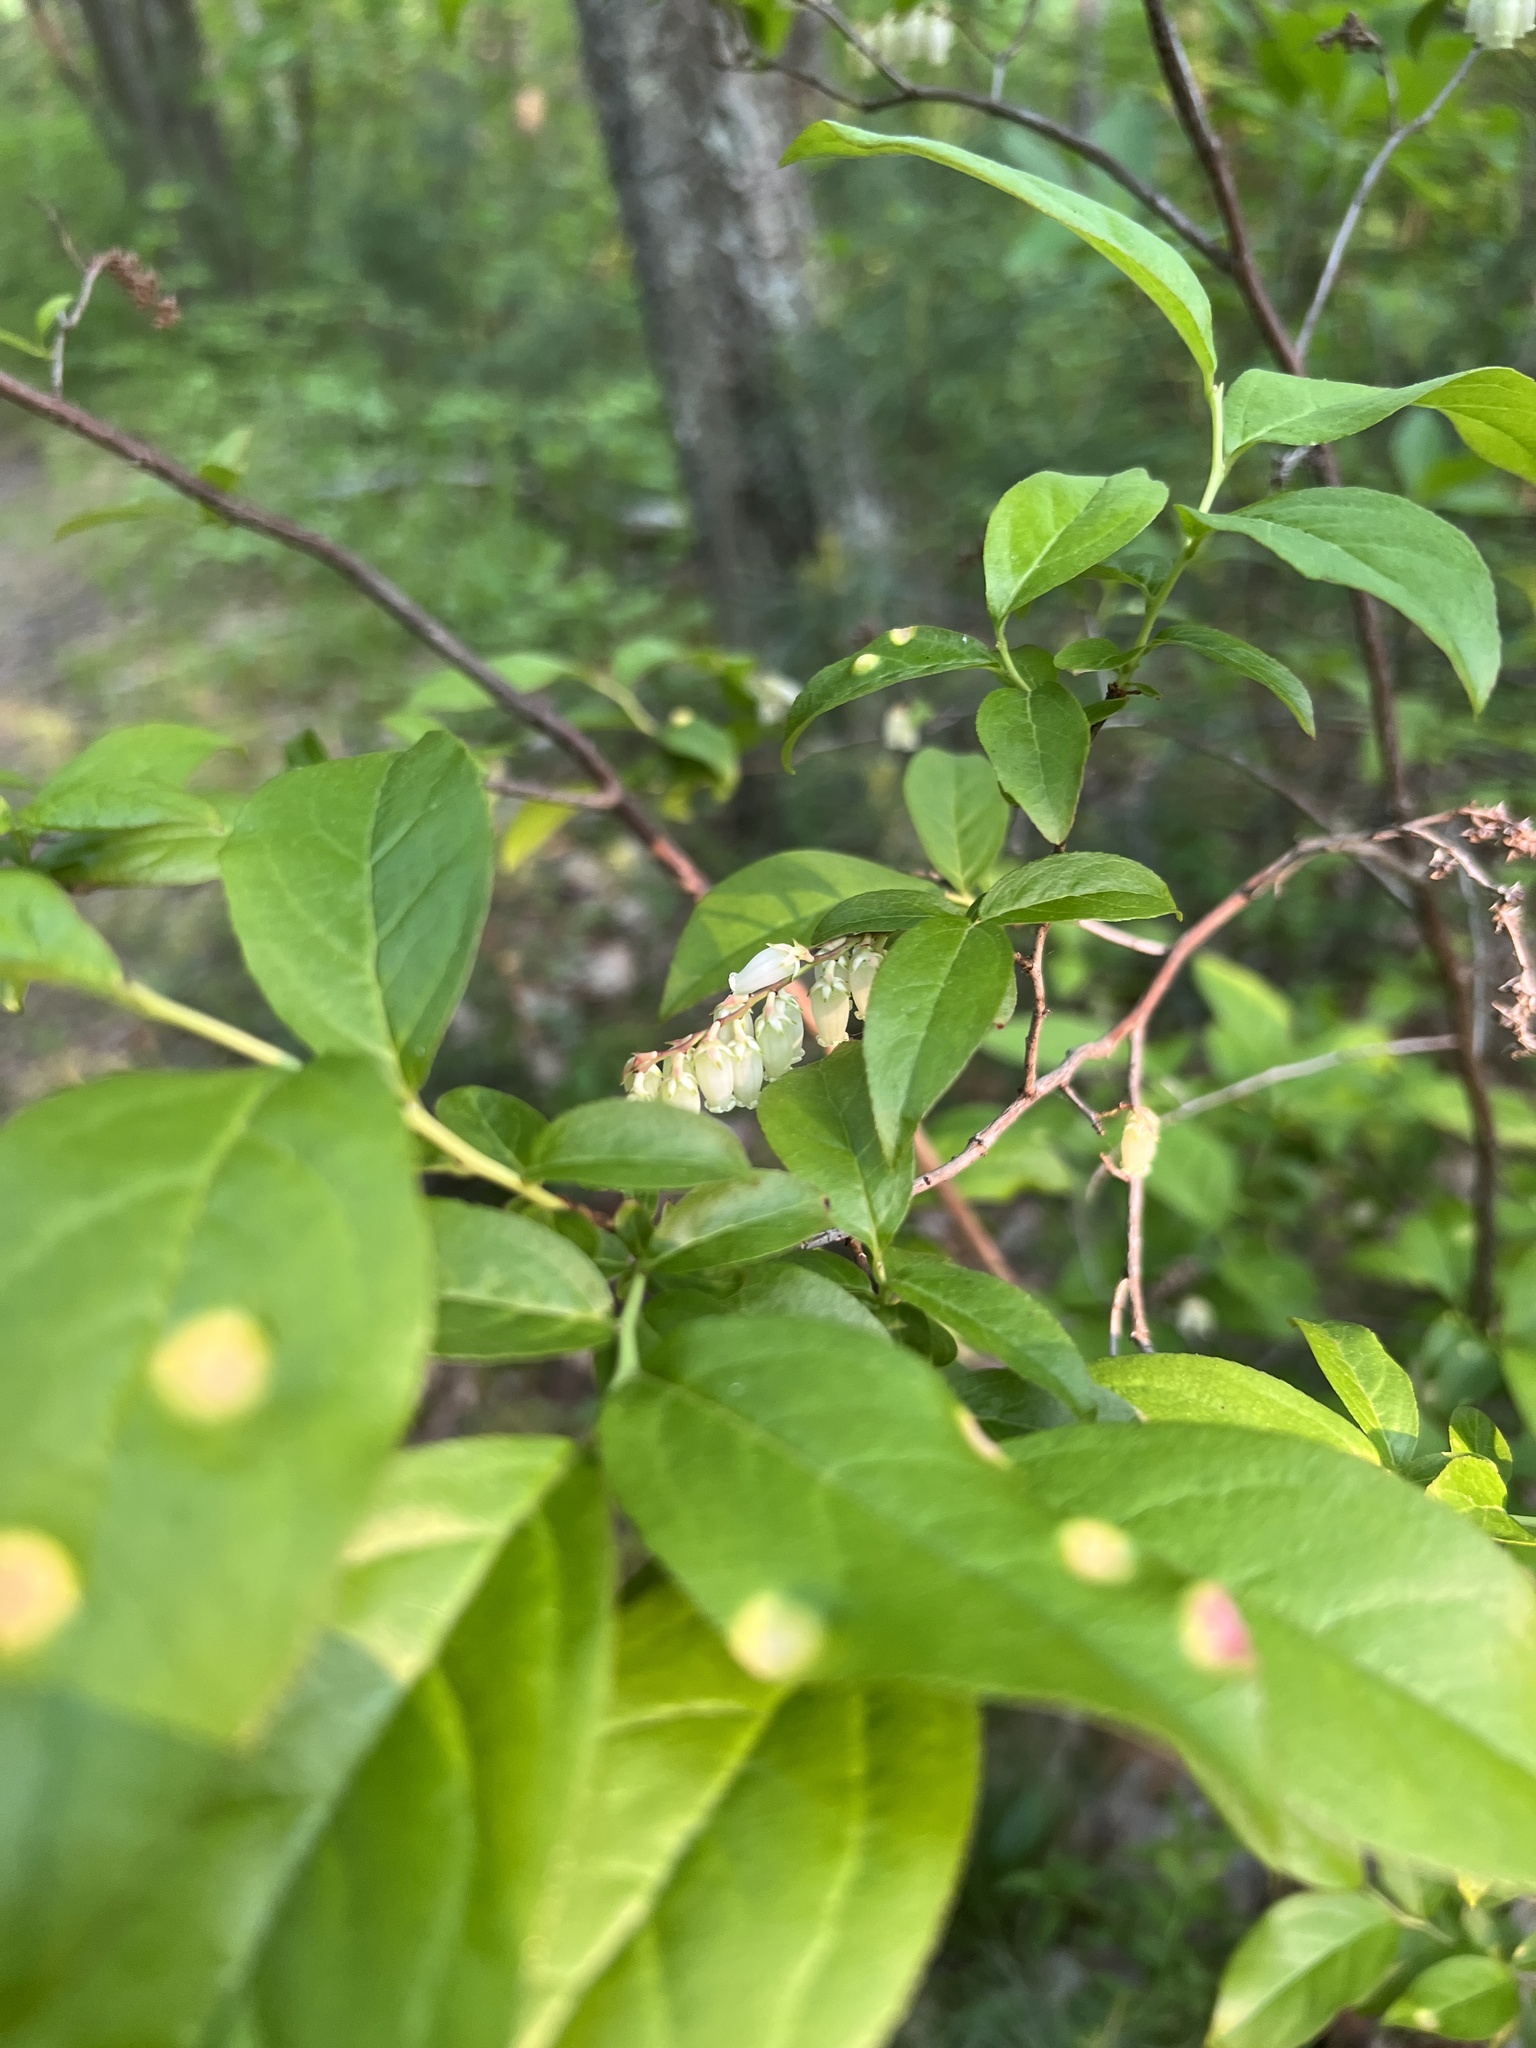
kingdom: Plantae
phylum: Tracheophyta
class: Magnoliopsida
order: Ericales
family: Ericaceae
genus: Eubotrys
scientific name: Eubotrys racemosa
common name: Fetterbush
